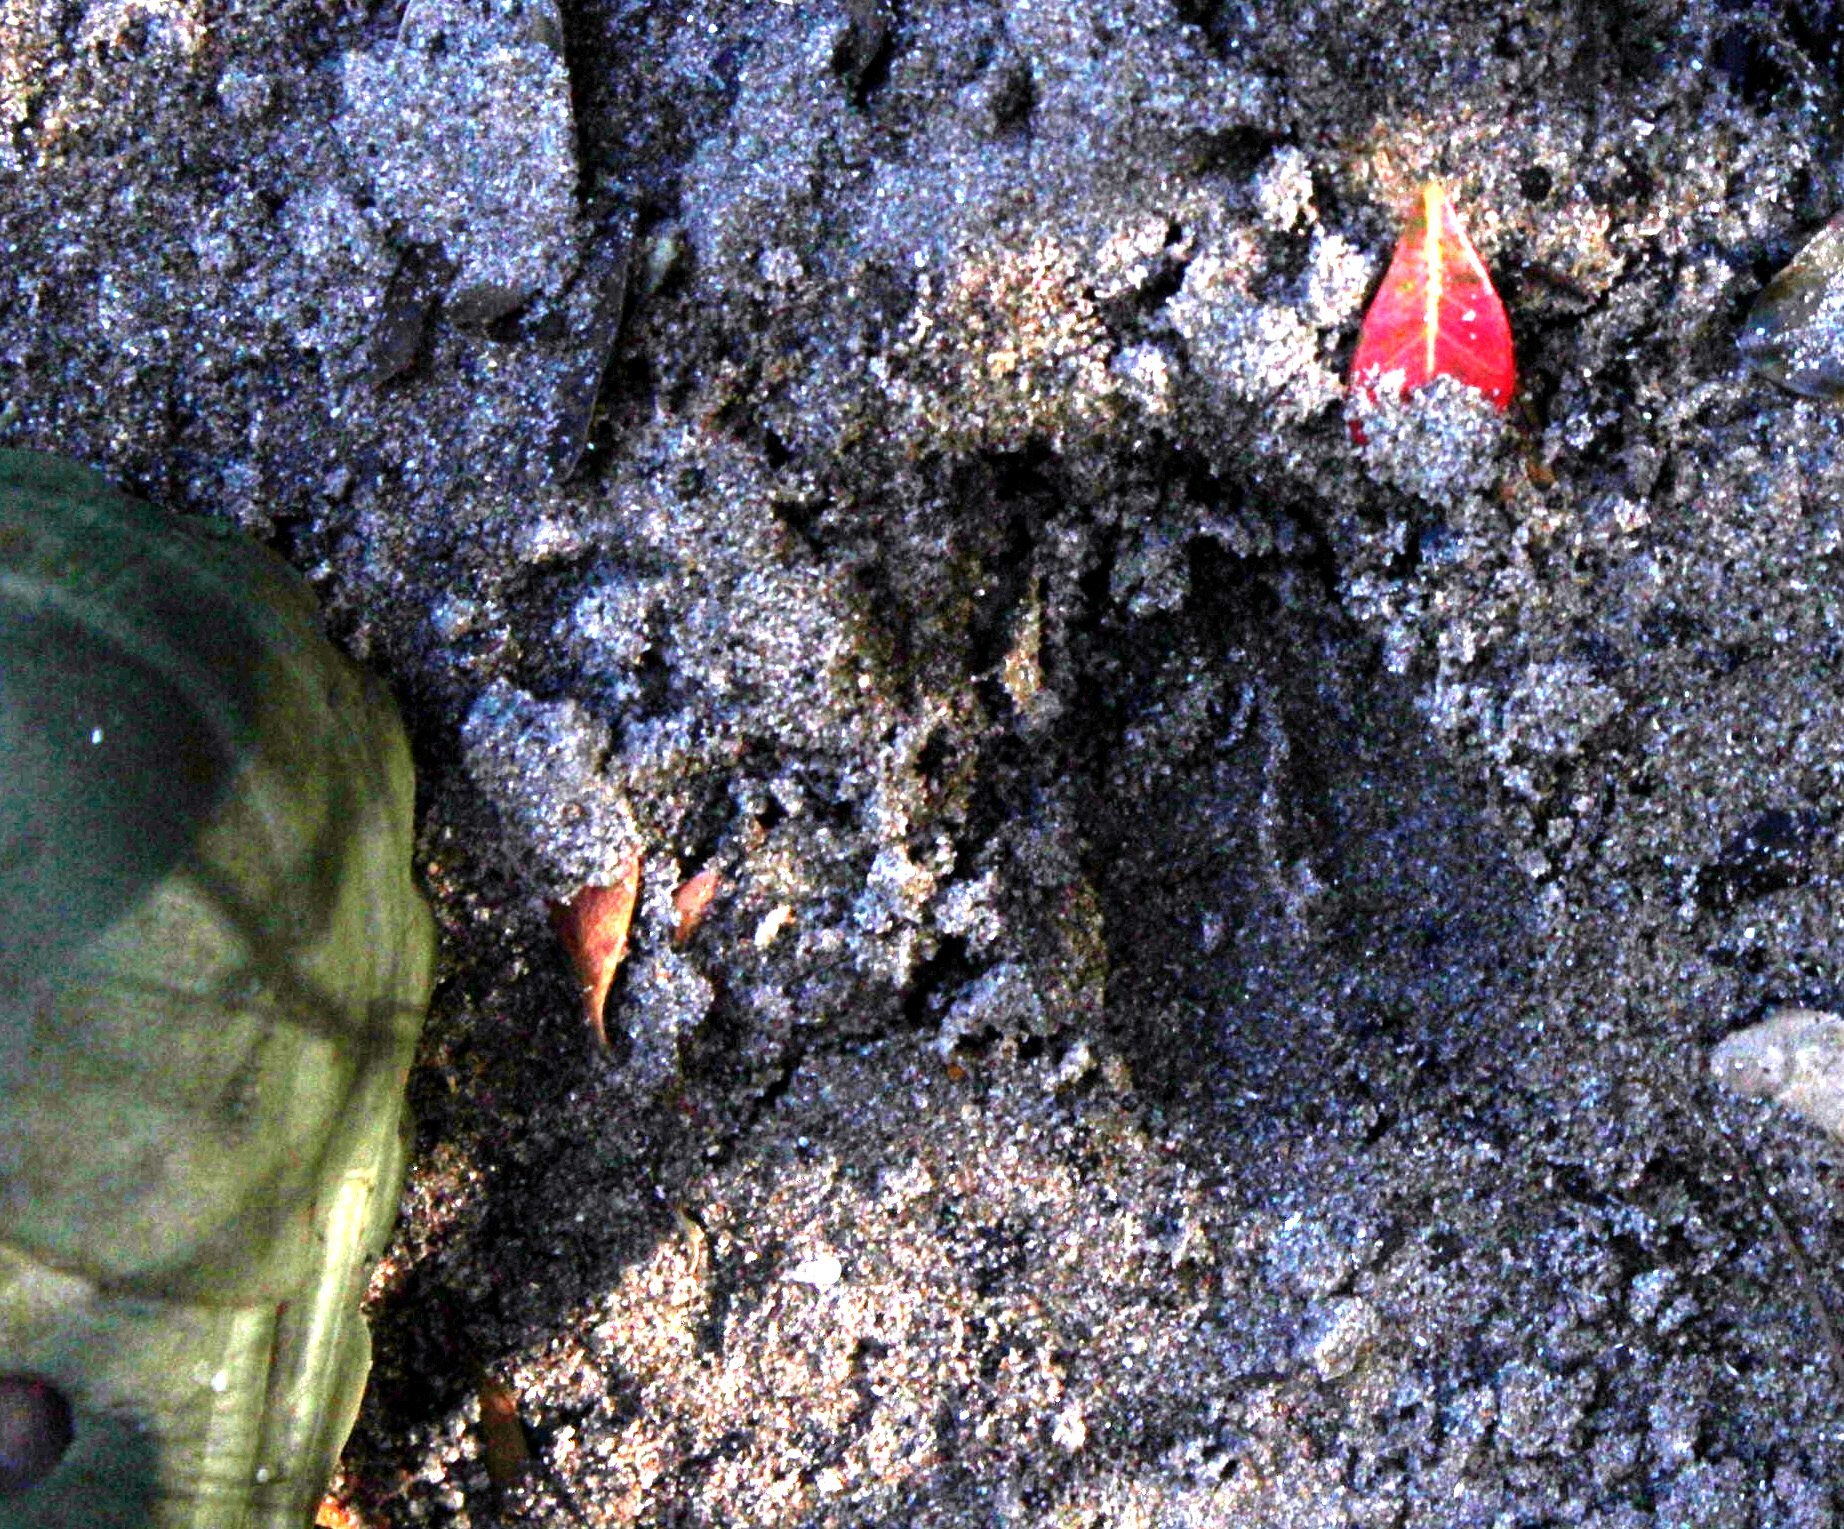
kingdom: Animalia
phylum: Chordata
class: Mammalia
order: Artiodactyla
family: Bovidae
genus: Tragelaphus
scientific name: Tragelaphus scriptus
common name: Bushbuck
